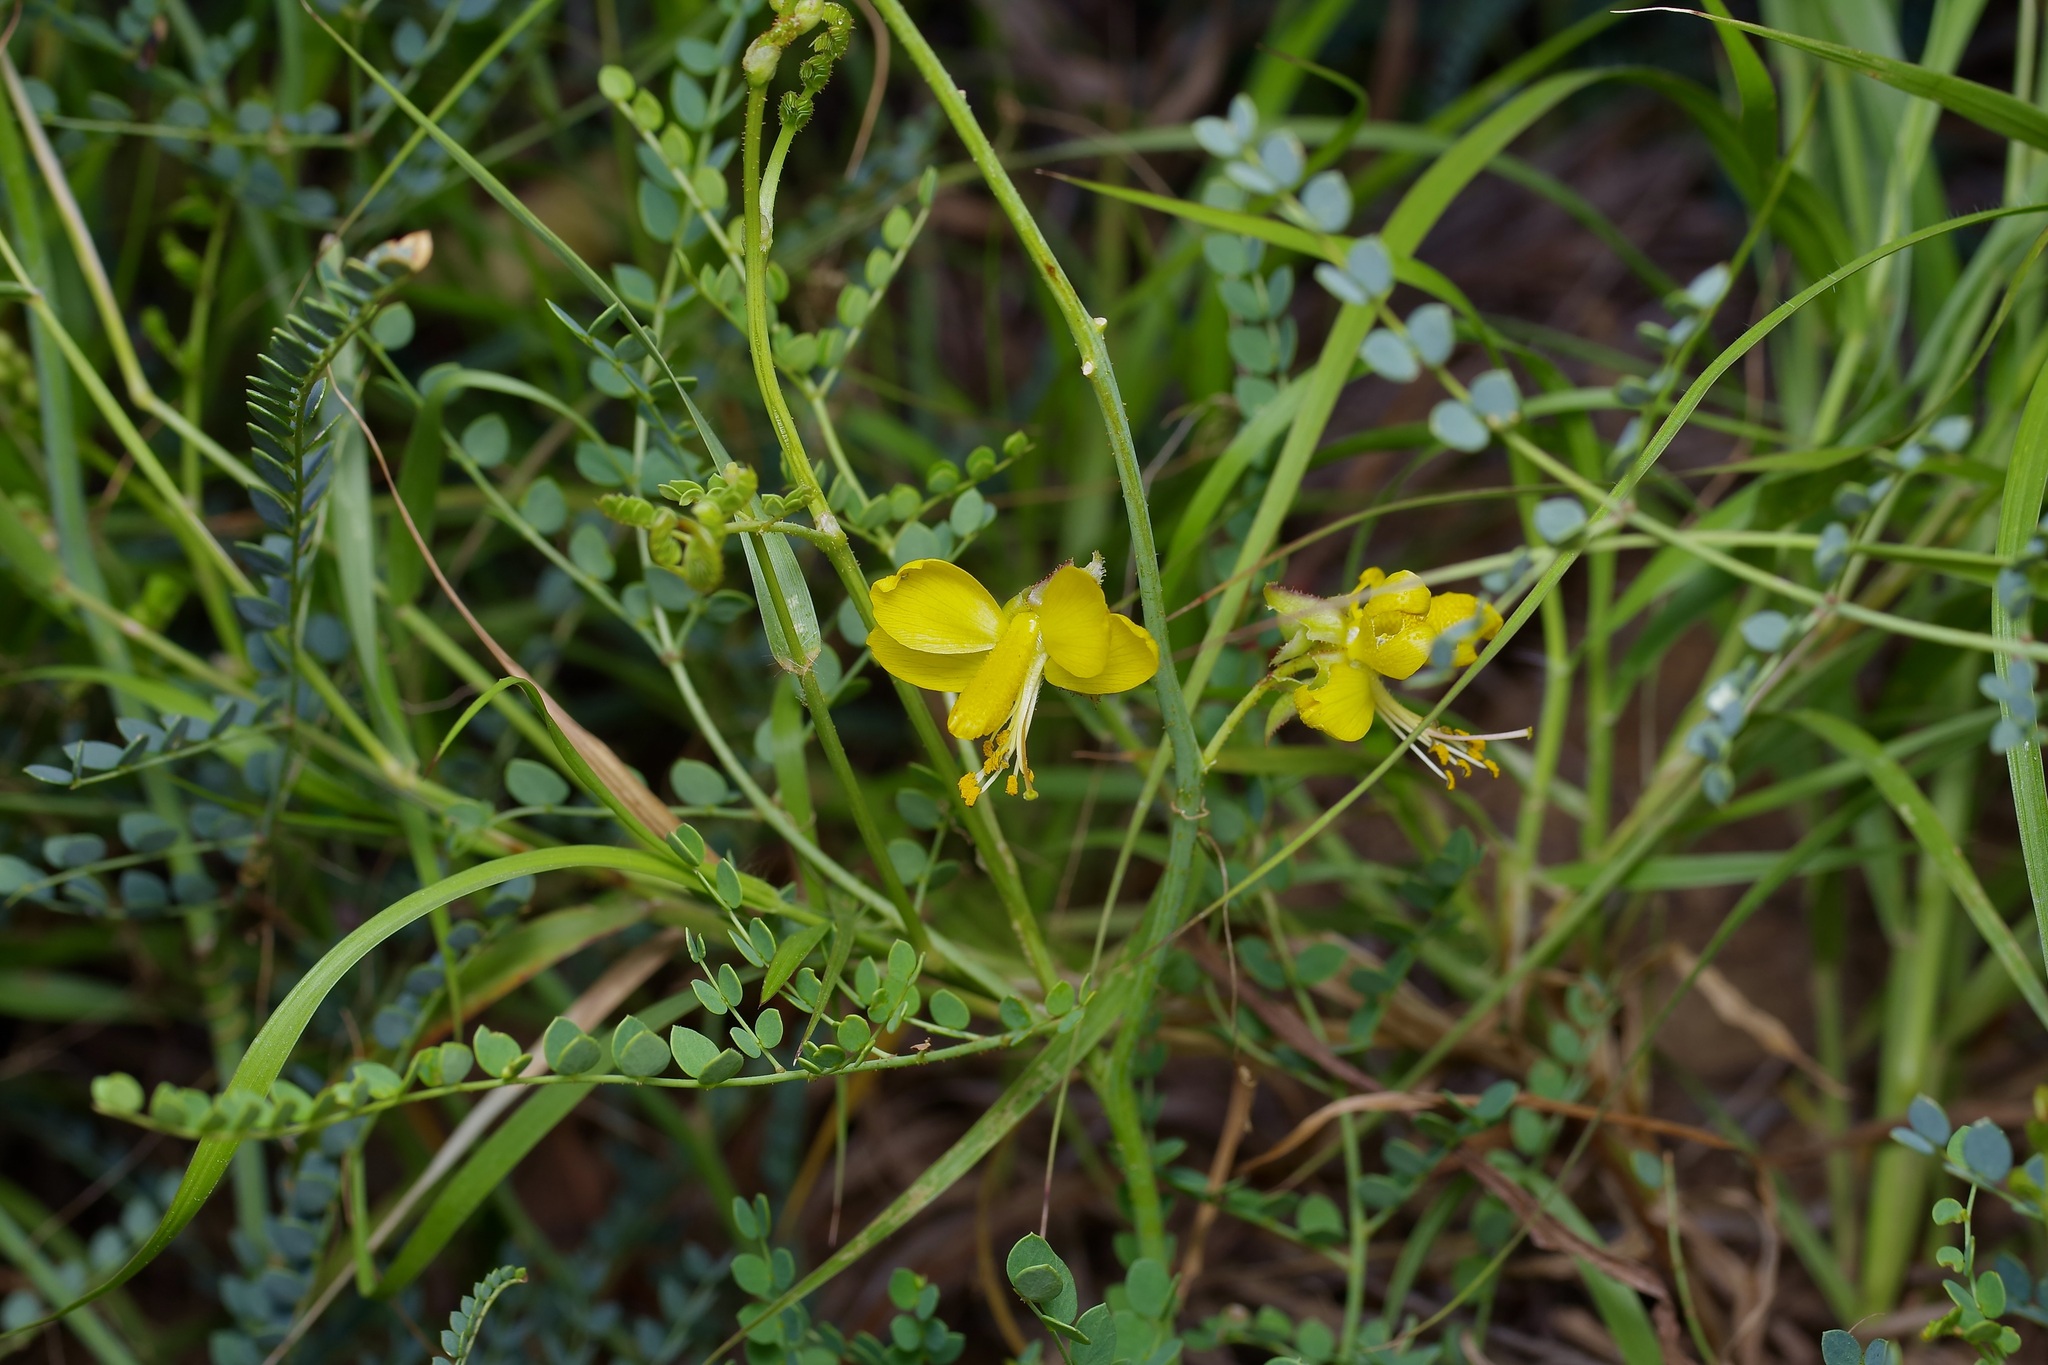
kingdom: Plantae
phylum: Tracheophyta
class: Magnoliopsida
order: Fabales
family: Fabaceae
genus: Erythrostemon
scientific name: Erythrostemon caudatus
